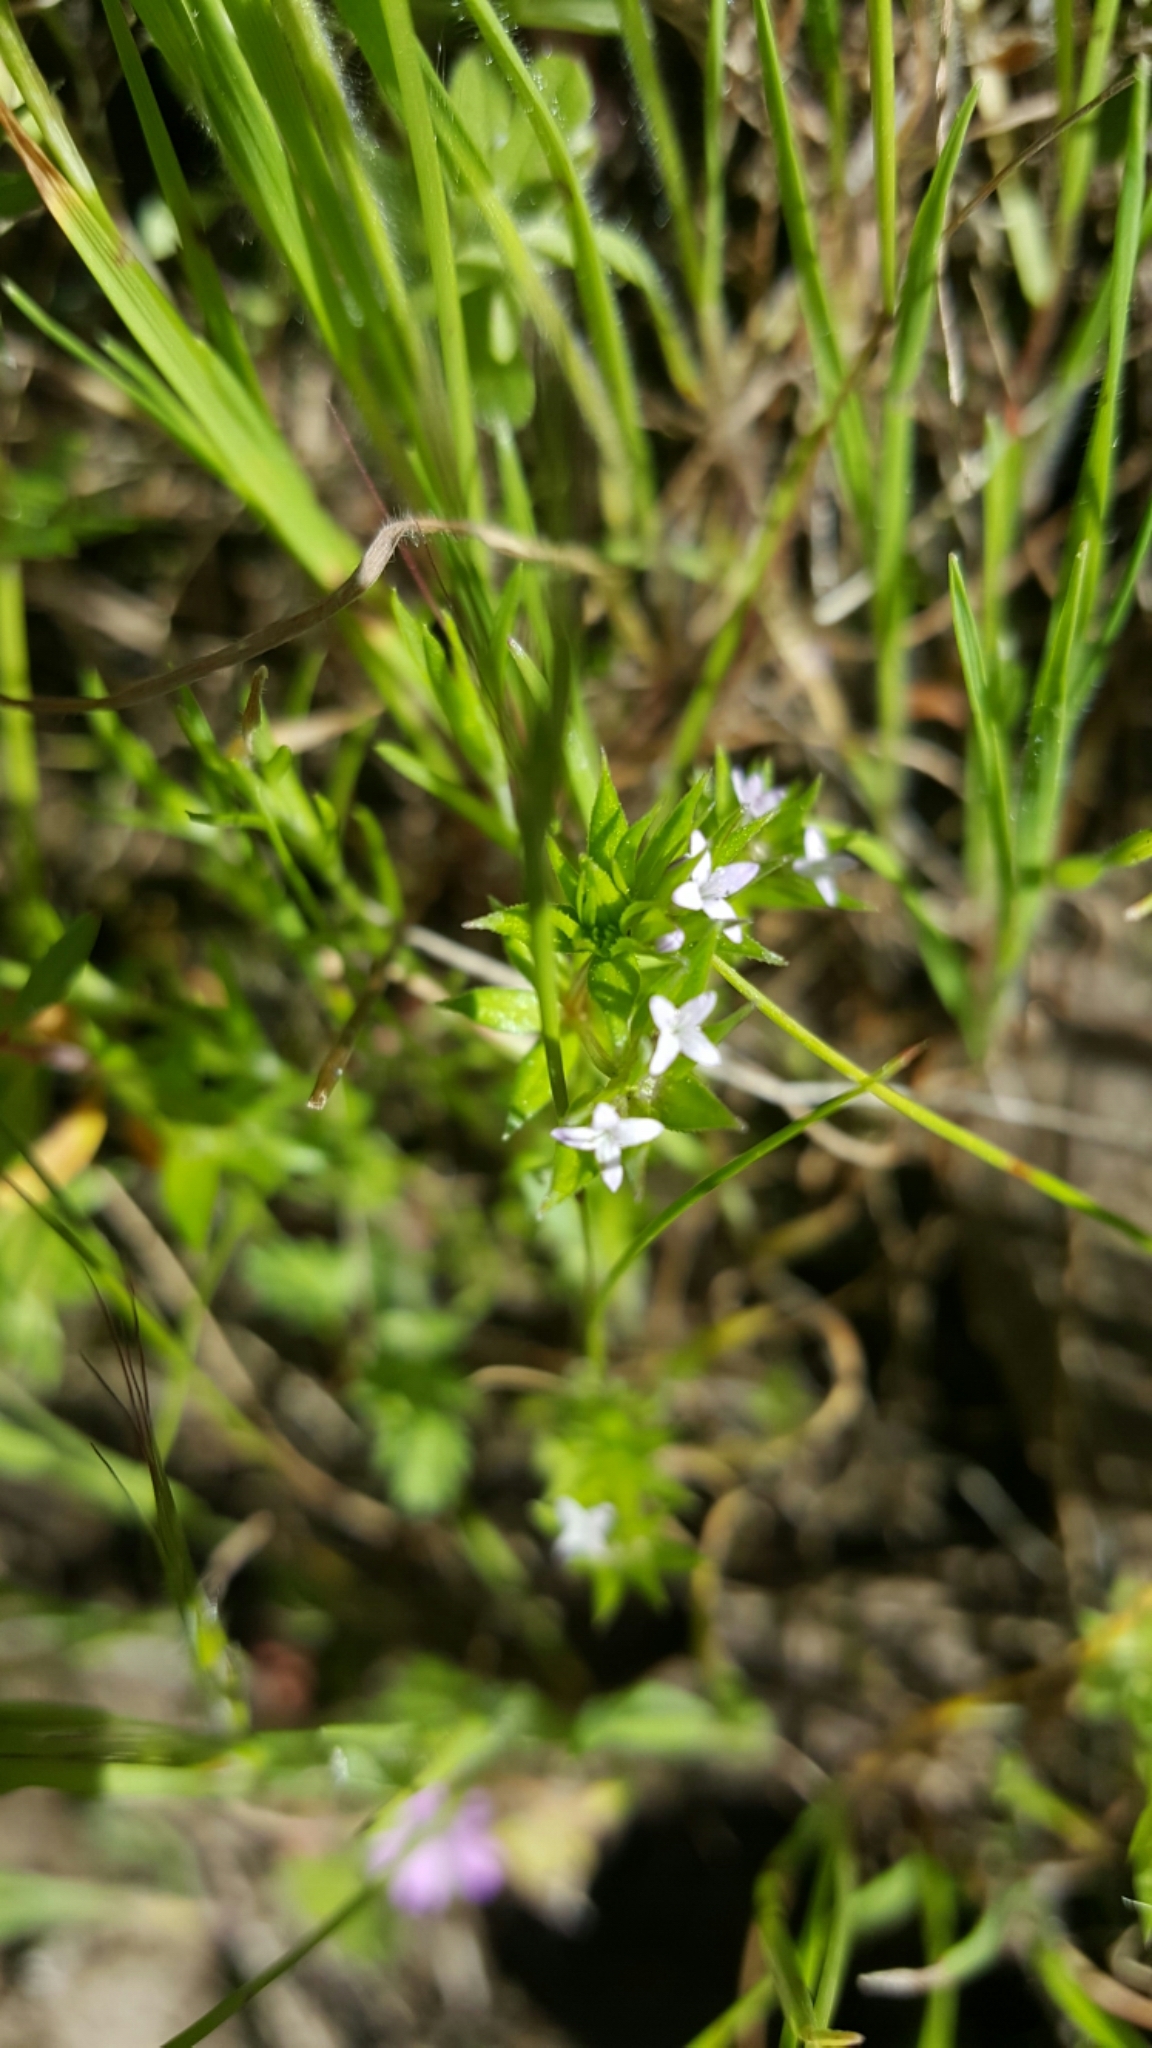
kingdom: Plantae
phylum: Tracheophyta
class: Magnoliopsida
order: Gentianales
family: Rubiaceae
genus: Sherardia
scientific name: Sherardia arvensis
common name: Field madder
